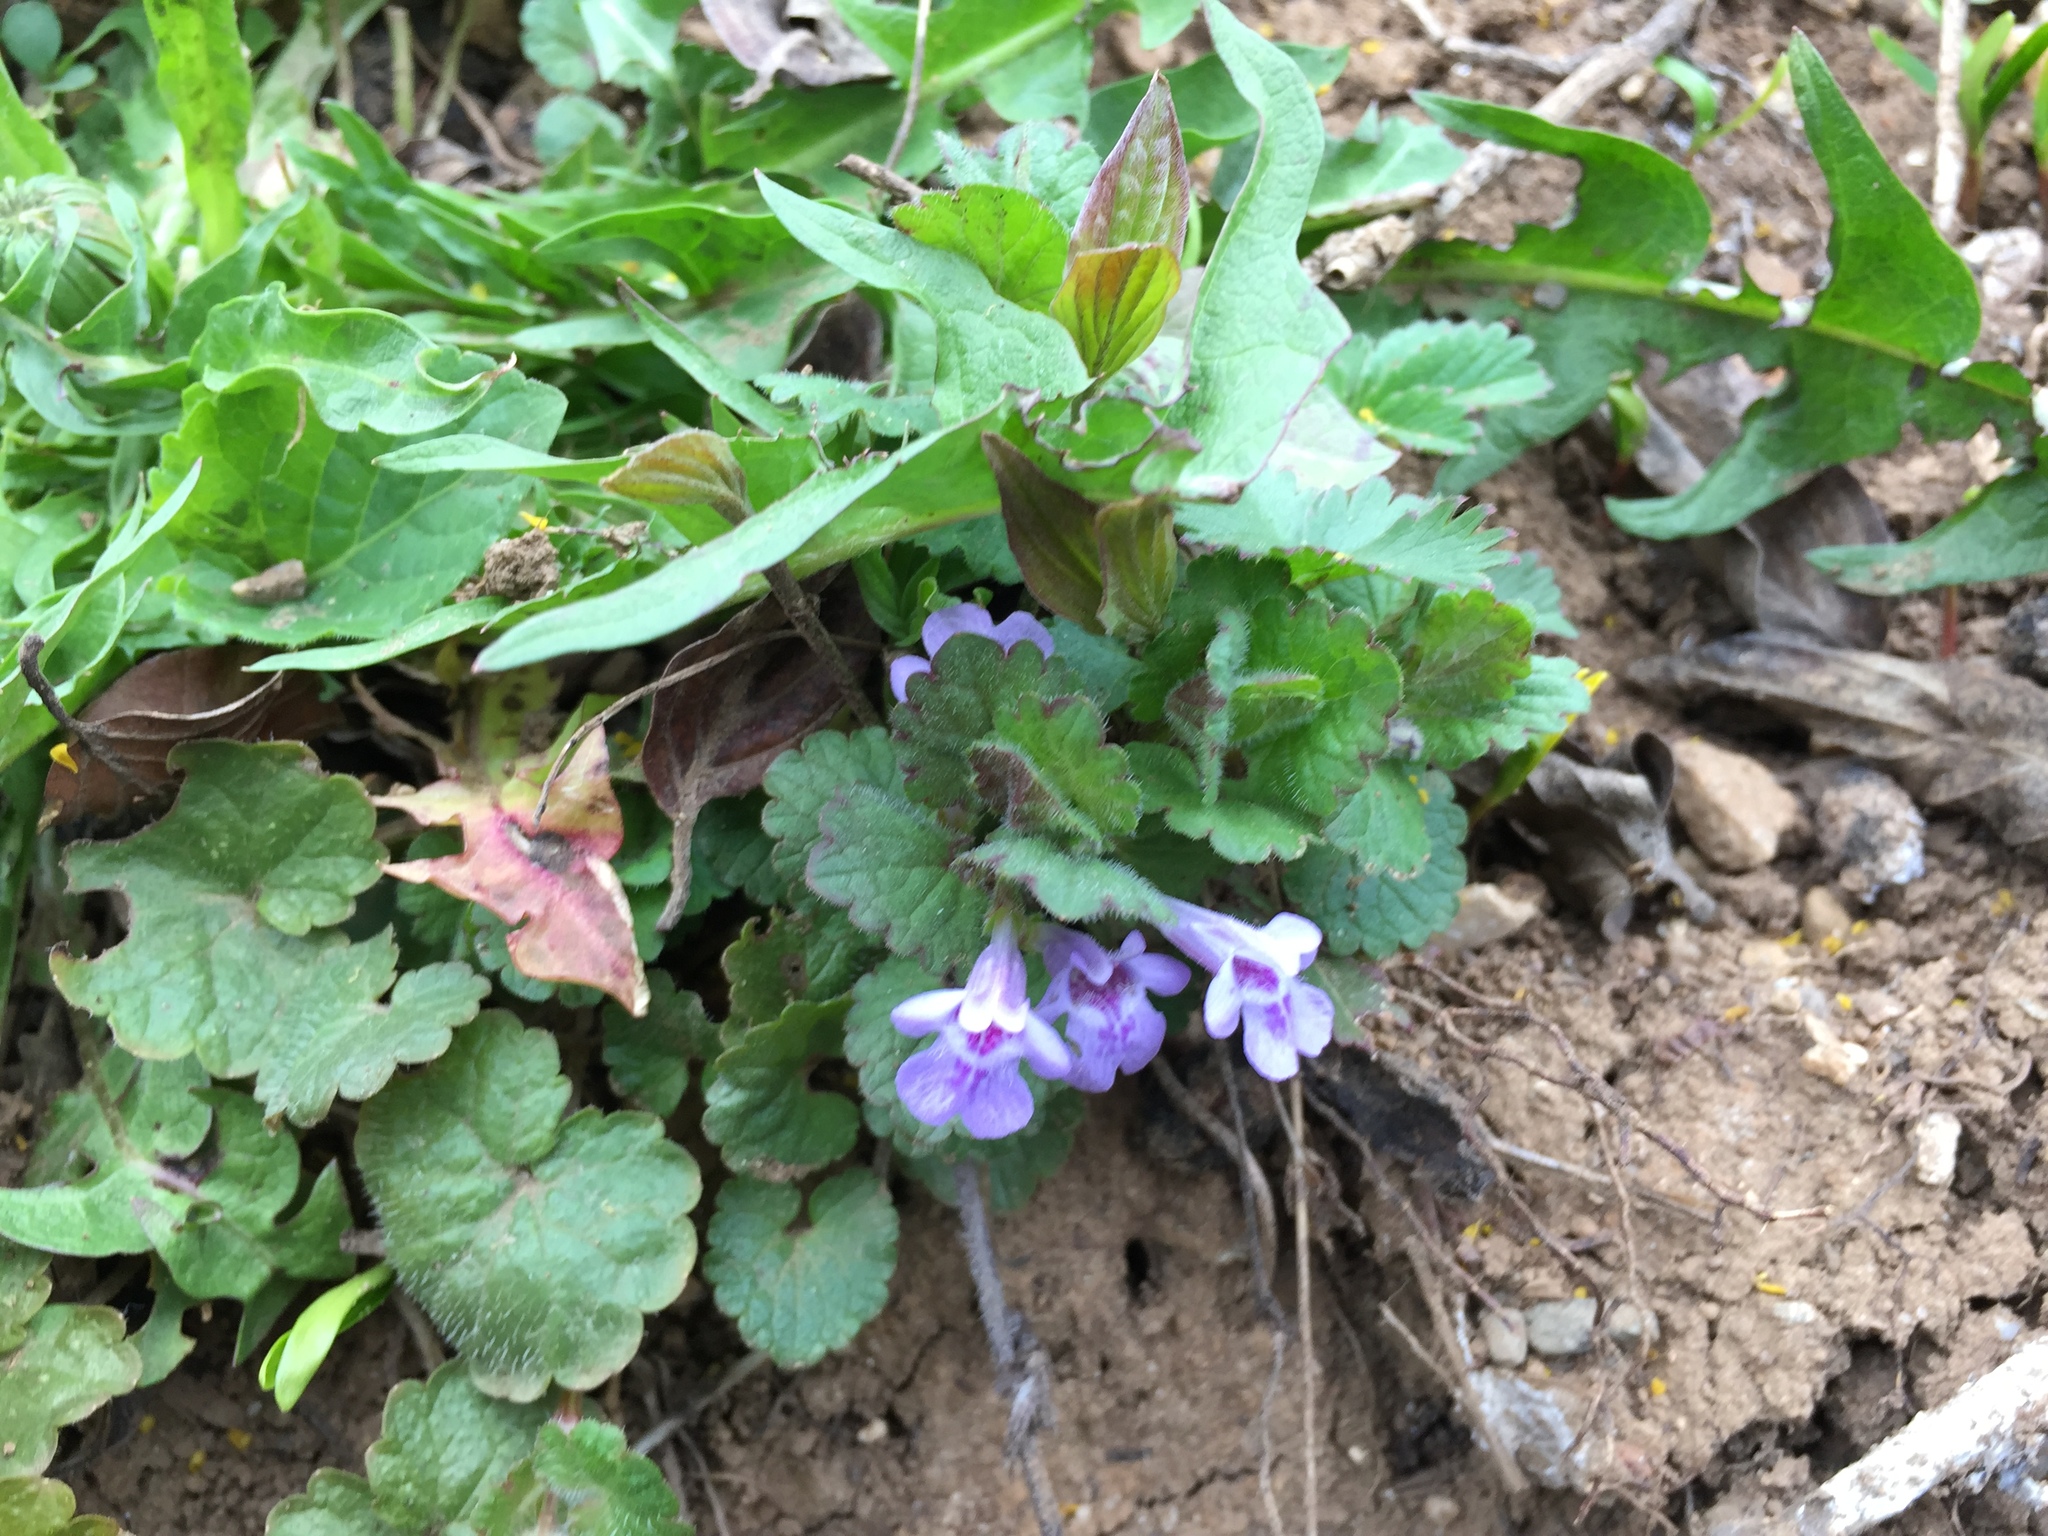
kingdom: Plantae
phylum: Tracheophyta
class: Magnoliopsida
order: Lamiales
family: Lamiaceae
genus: Glechoma
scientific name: Glechoma hederacea
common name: Ground ivy
